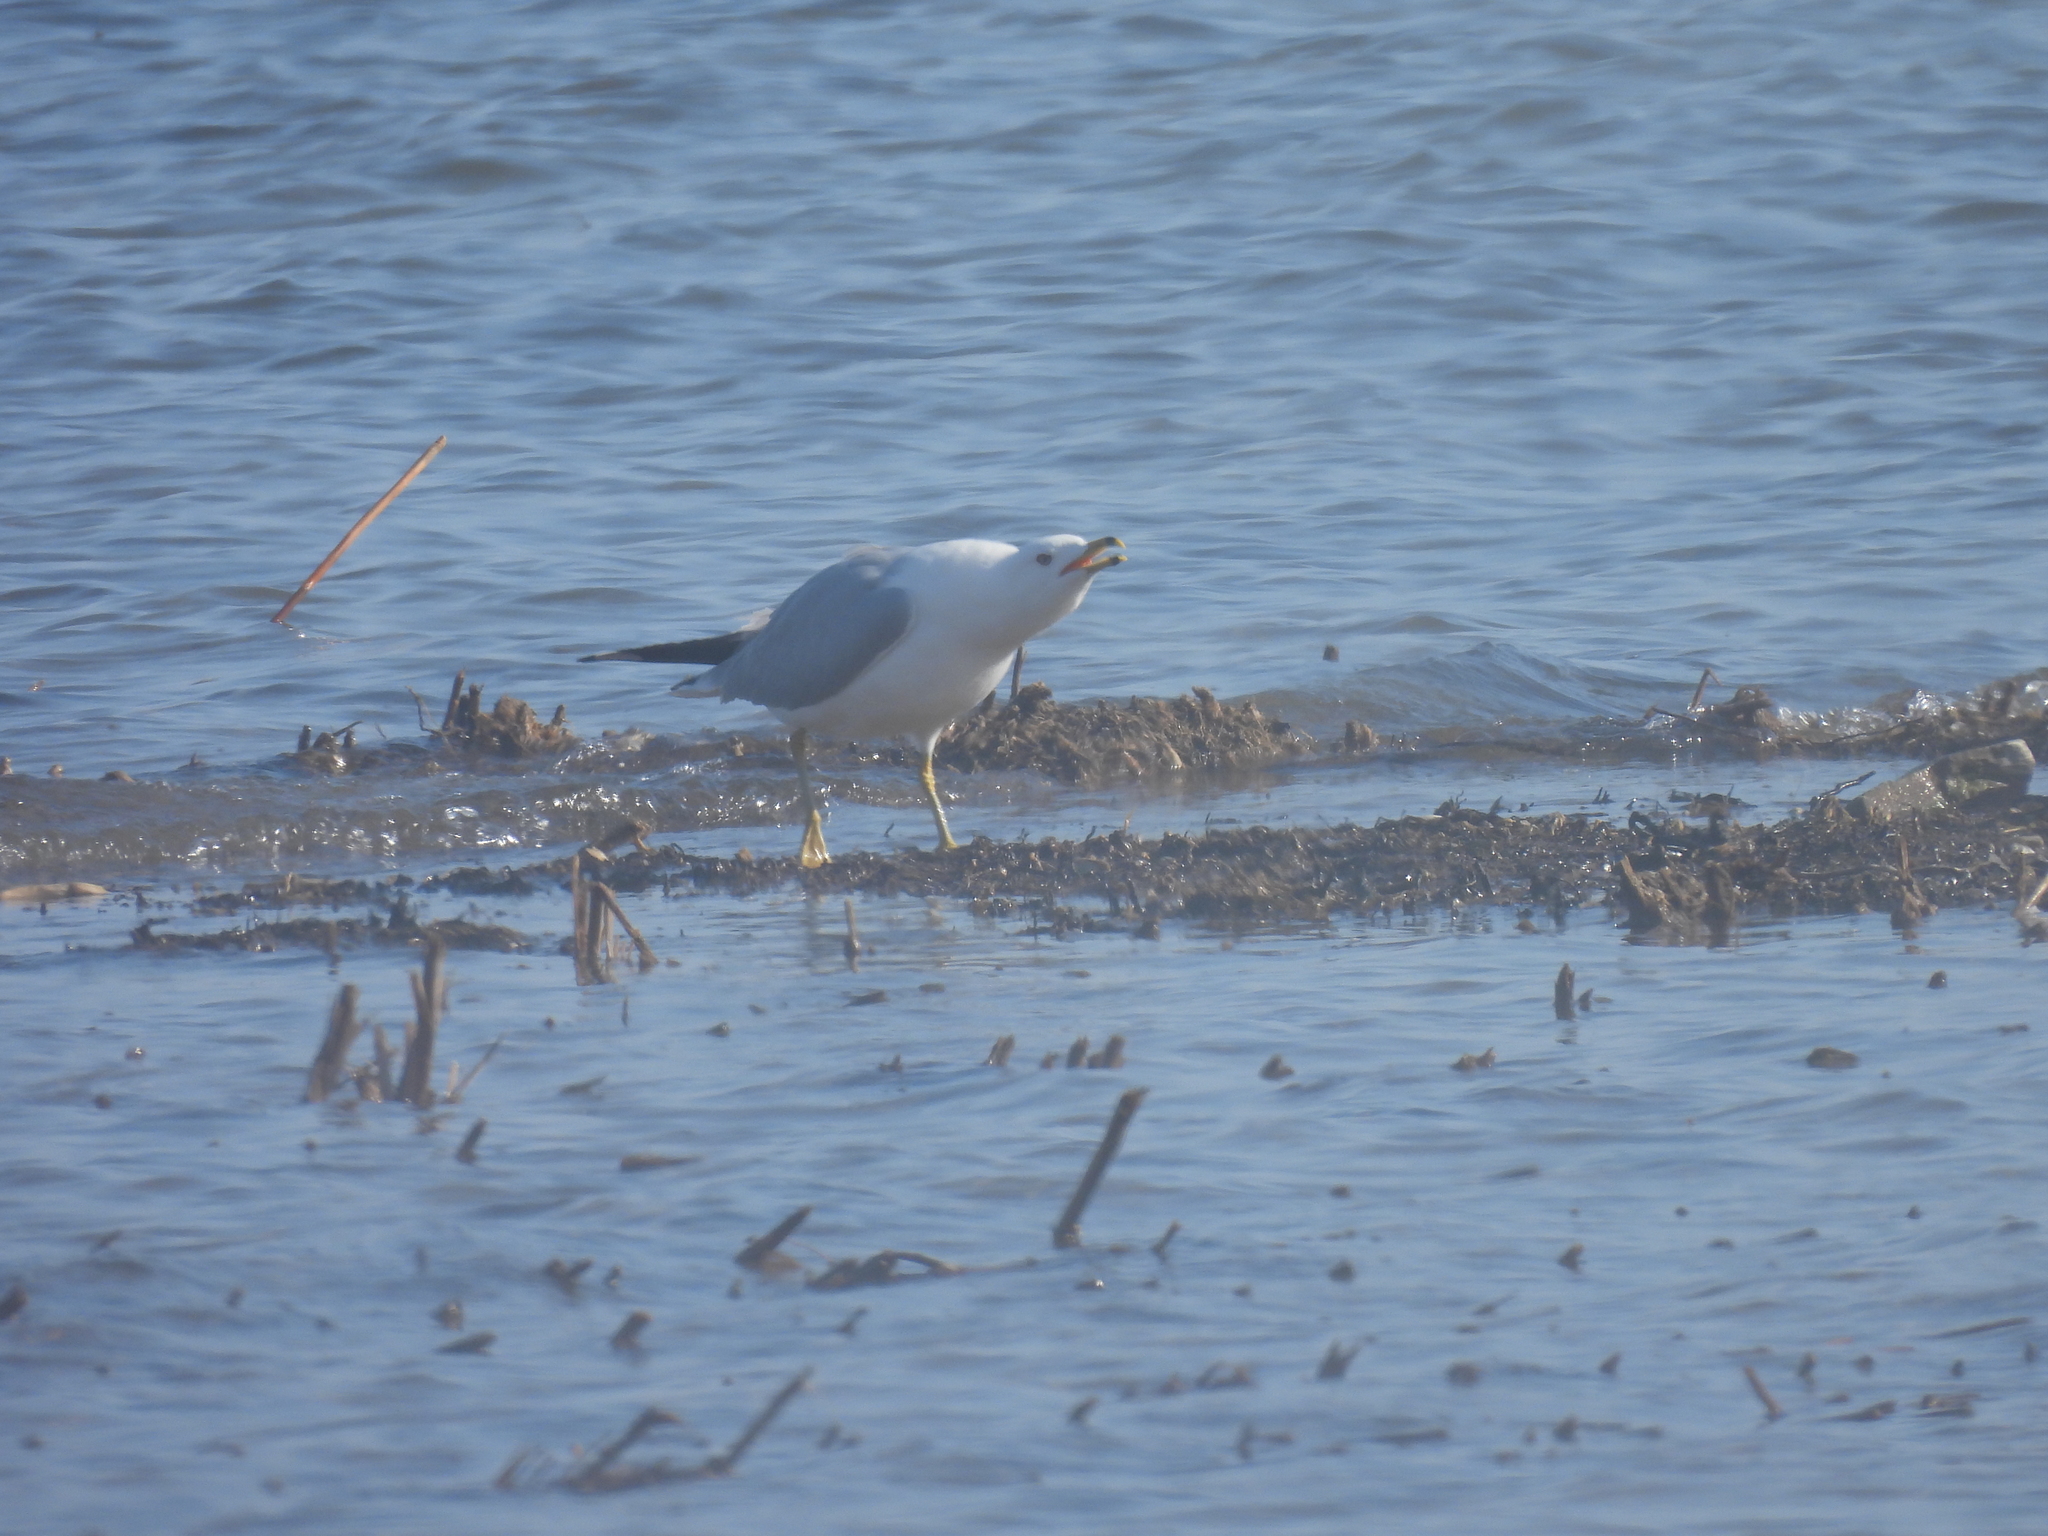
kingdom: Animalia
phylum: Chordata
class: Aves
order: Charadriiformes
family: Laridae
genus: Larus
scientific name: Larus delawarensis
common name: Ring-billed gull
